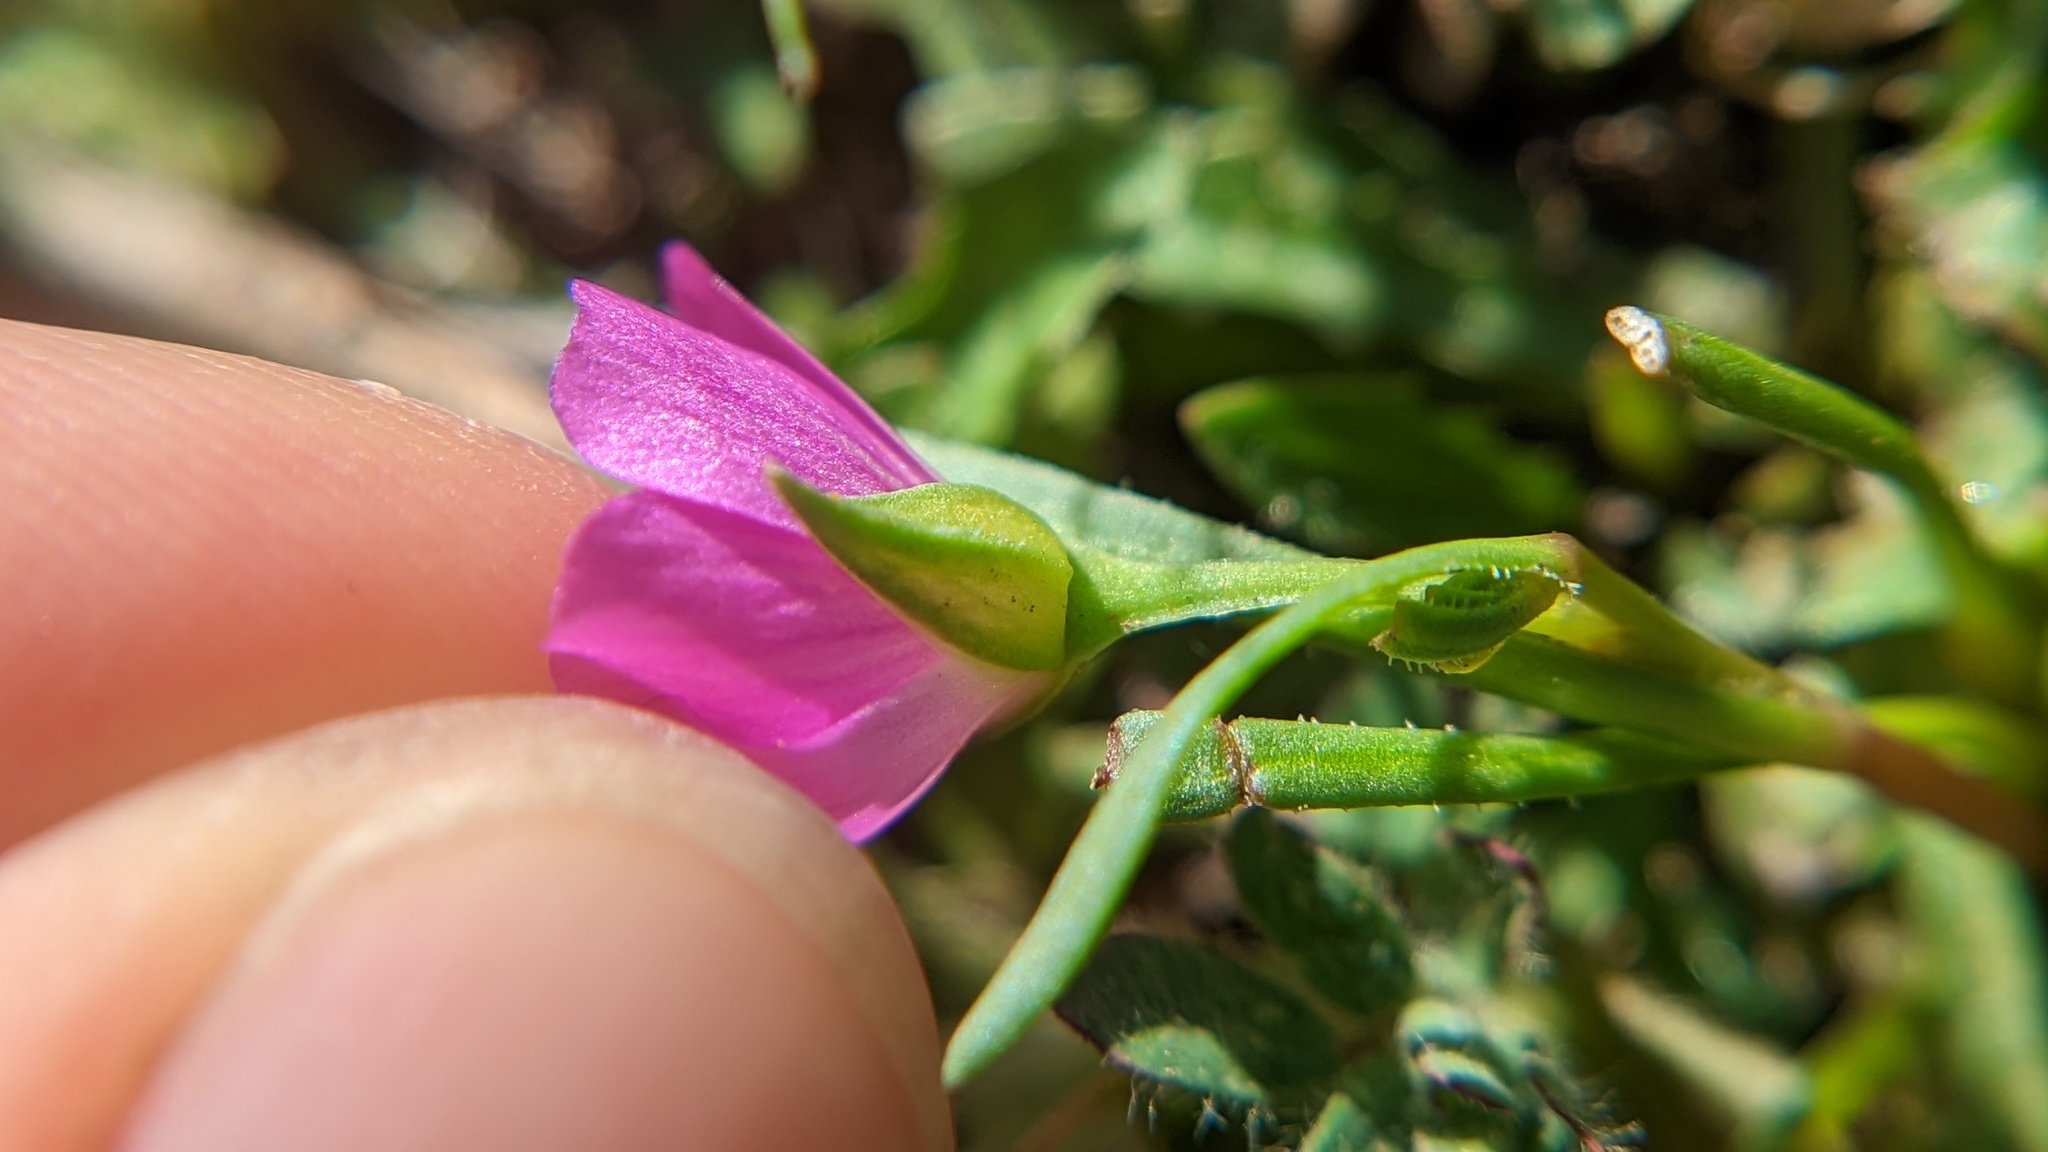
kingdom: Plantae
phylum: Tracheophyta
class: Magnoliopsida
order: Caryophyllales
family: Montiaceae
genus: Calandrinia
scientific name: Calandrinia menziesii
